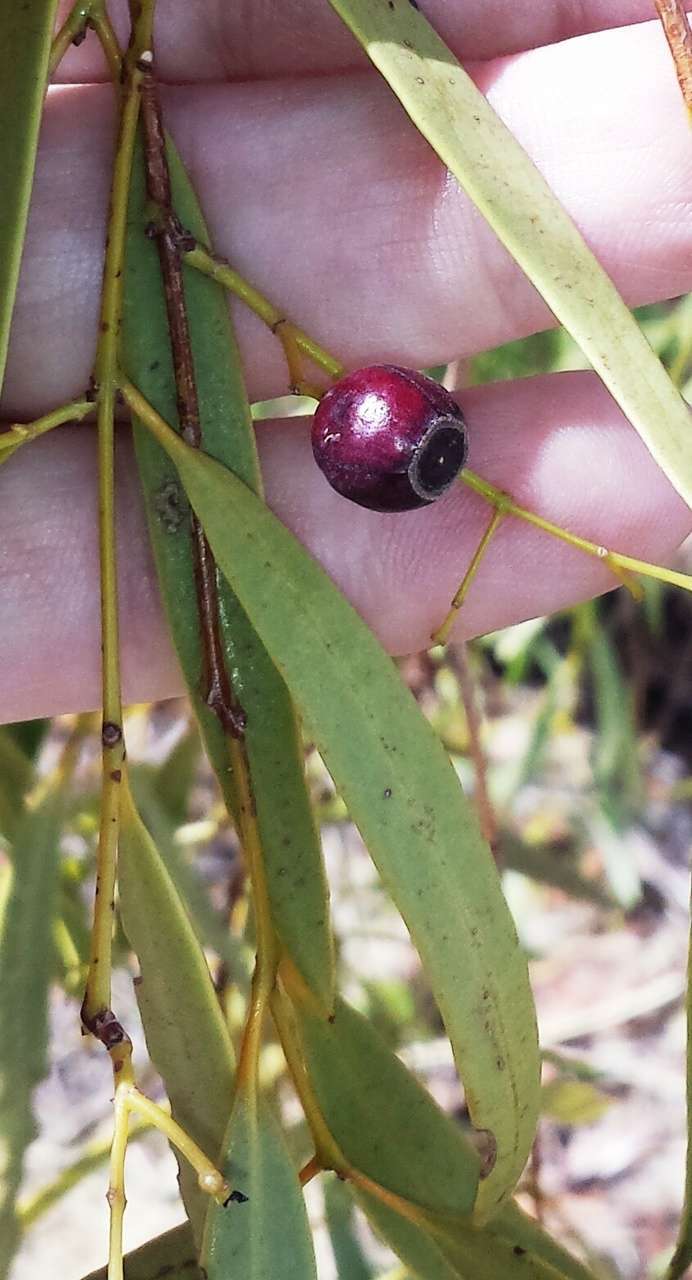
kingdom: Plantae
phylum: Tracheophyta
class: Magnoliopsida
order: Santalales
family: Santalaceae
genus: Santalum
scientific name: Santalum lanceolatum
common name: Ankwerley
